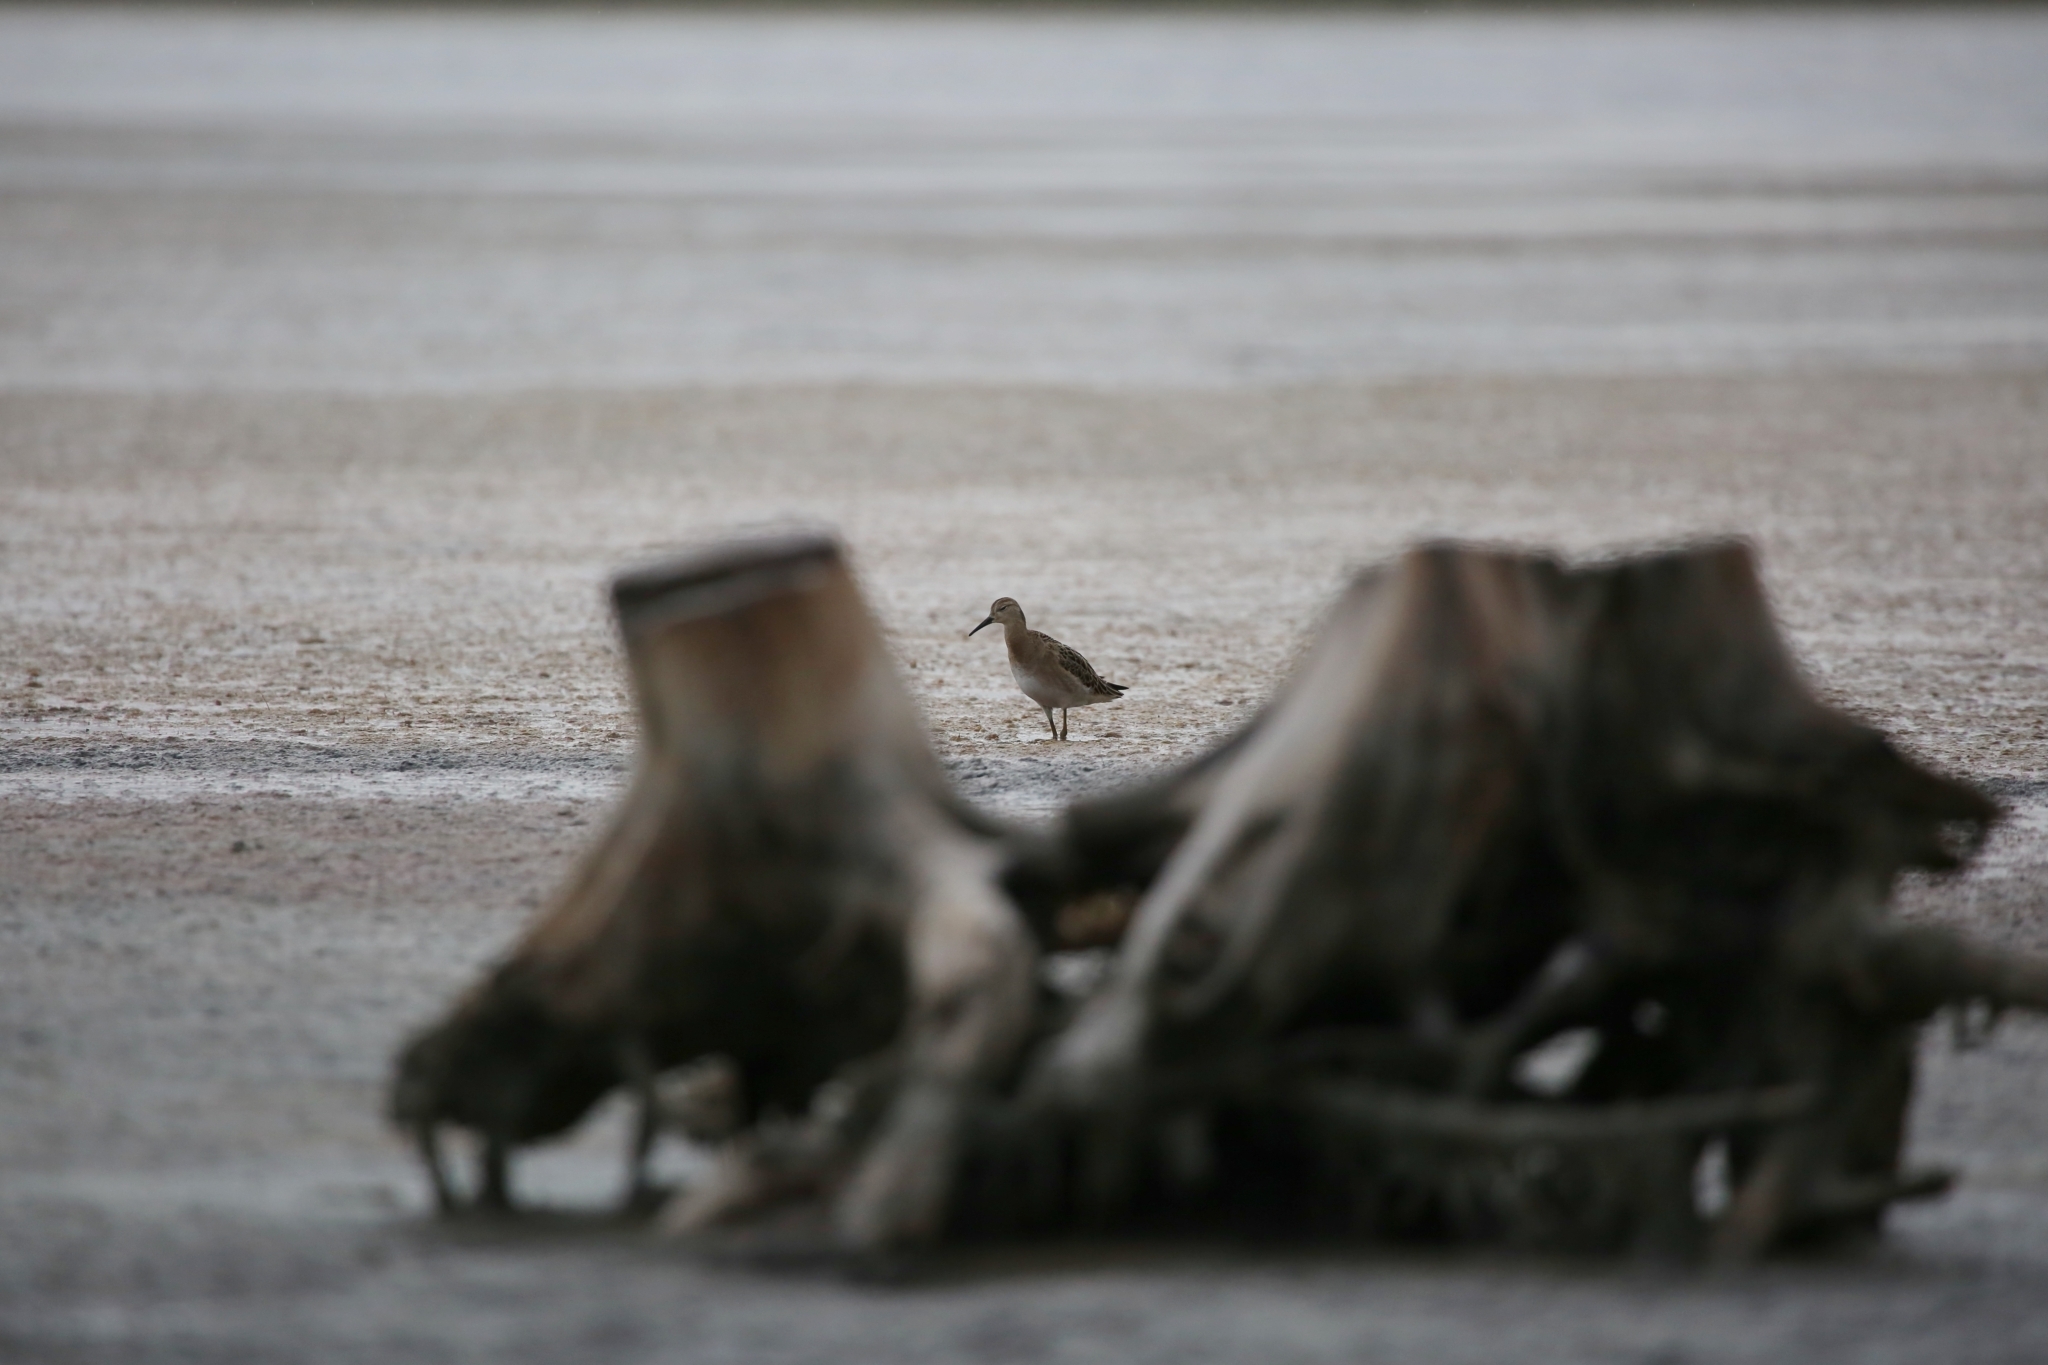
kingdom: Animalia
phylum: Chordata
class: Aves
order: Charadriiformes
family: Scolopacidae
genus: Calidris
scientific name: Calidris pugnax
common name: Ruff
